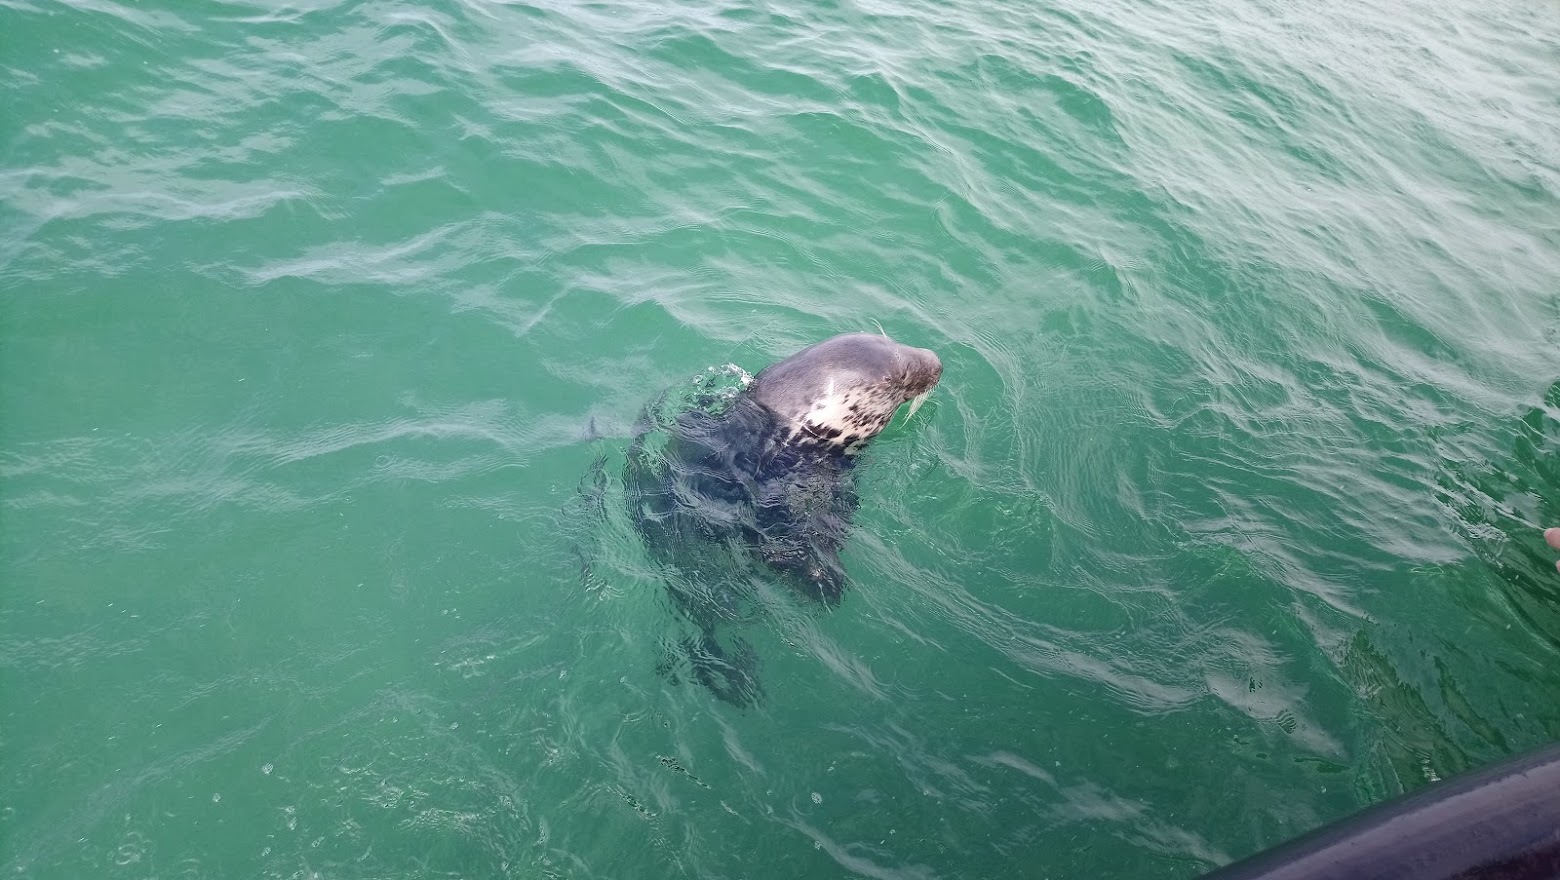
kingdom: Animalia
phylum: Chordata
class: Mammalia
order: Carnivora
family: Phocidae
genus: Halichoerus
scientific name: Halichoerus grypus
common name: Grey seal
